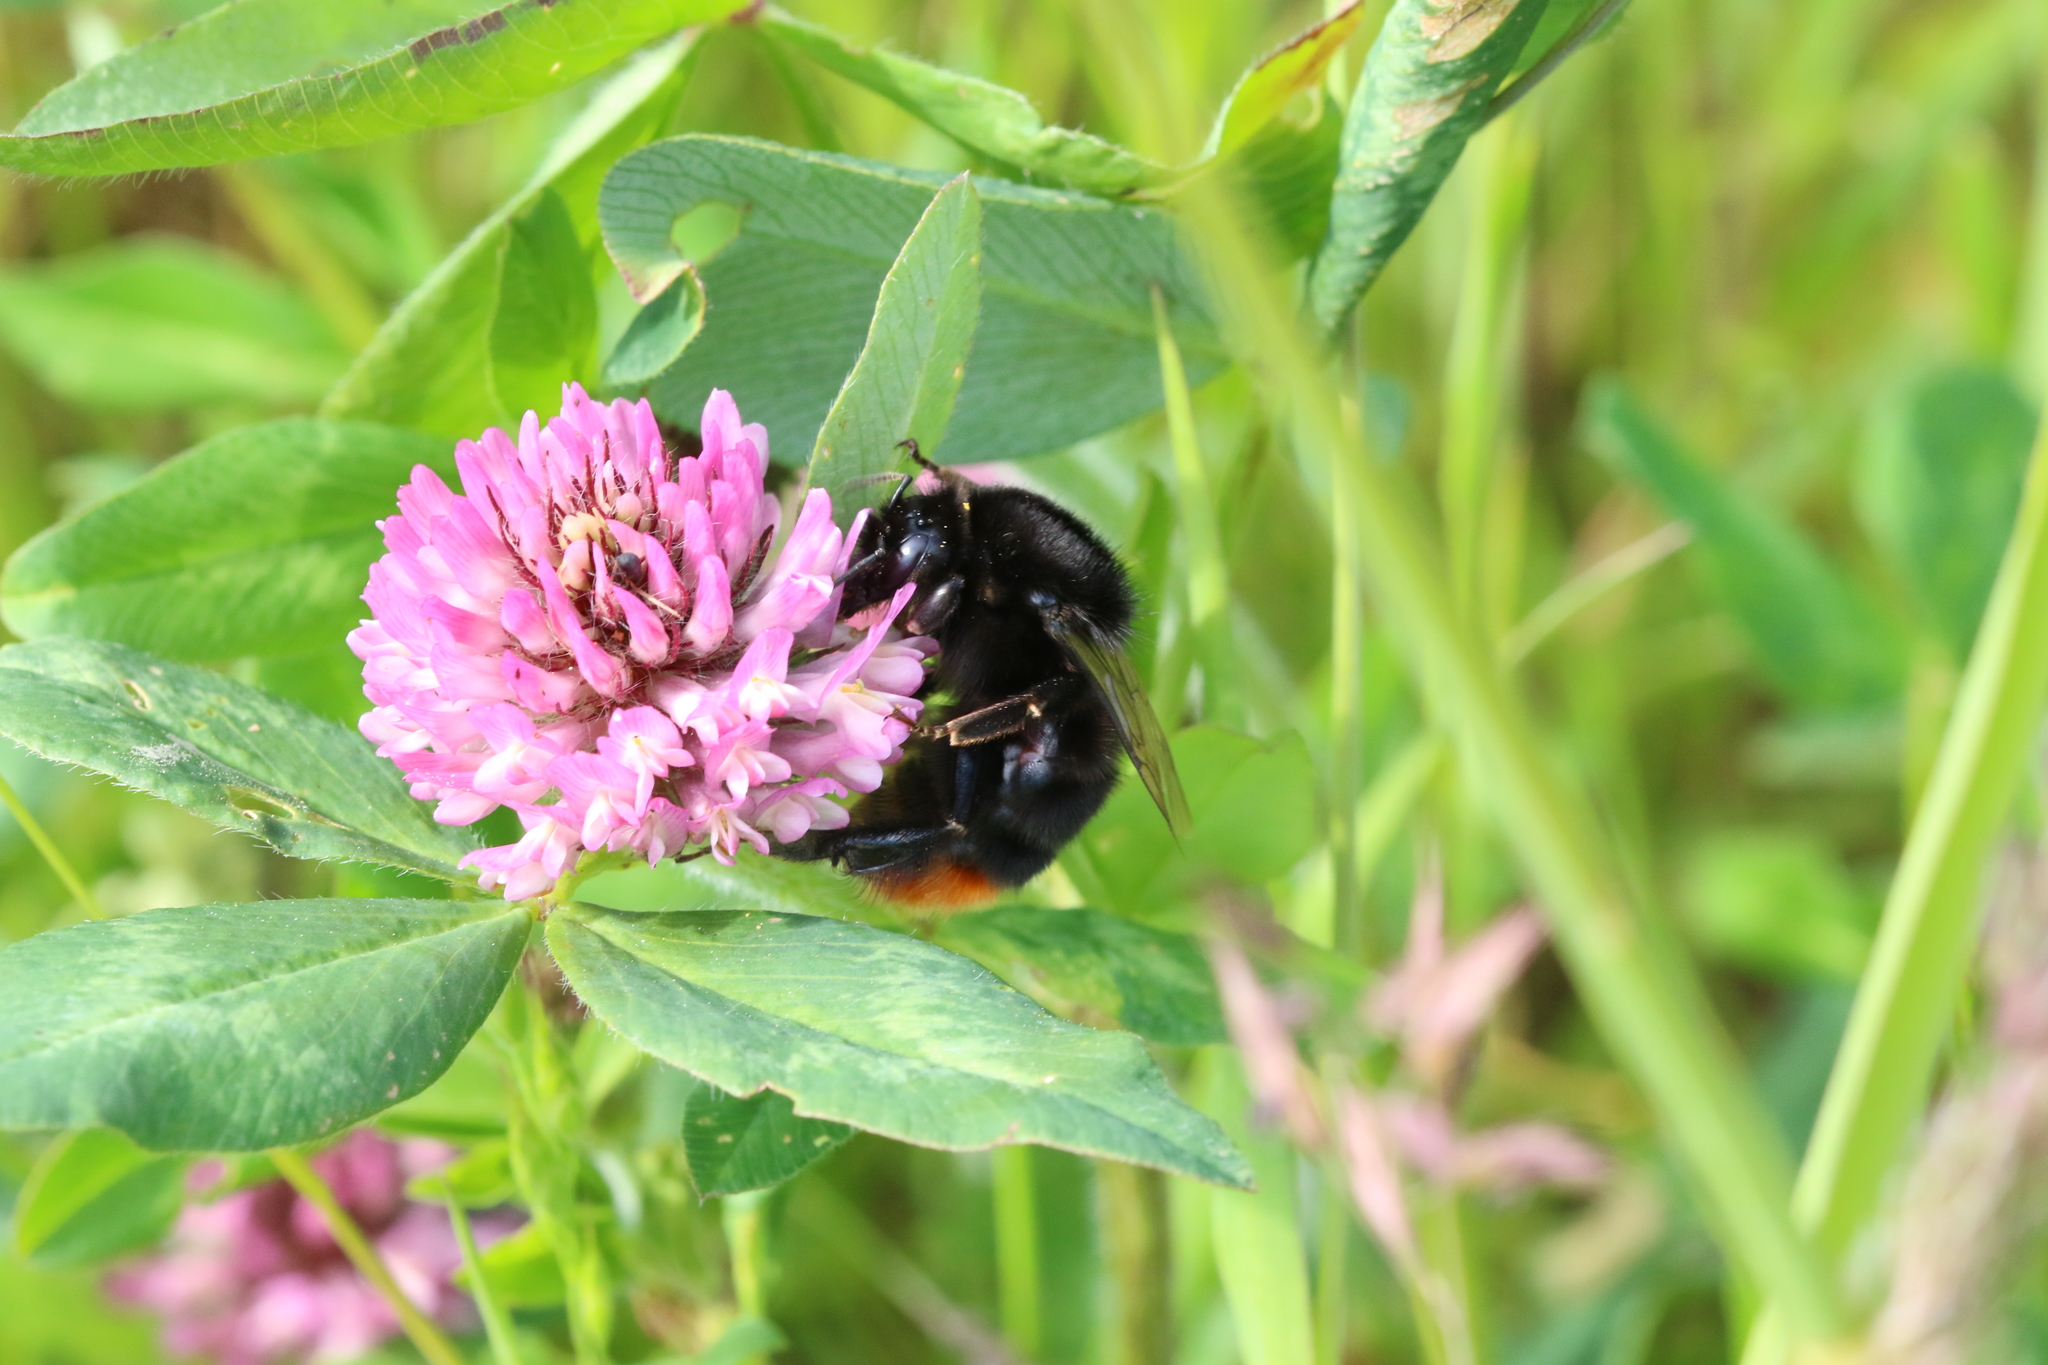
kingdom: Animalia
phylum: Arthropoda
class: Insecta
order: Hymenoptera
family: Apidae
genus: Bombus
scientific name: Bombus lapidarius
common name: Large red-tailed humble-bee
